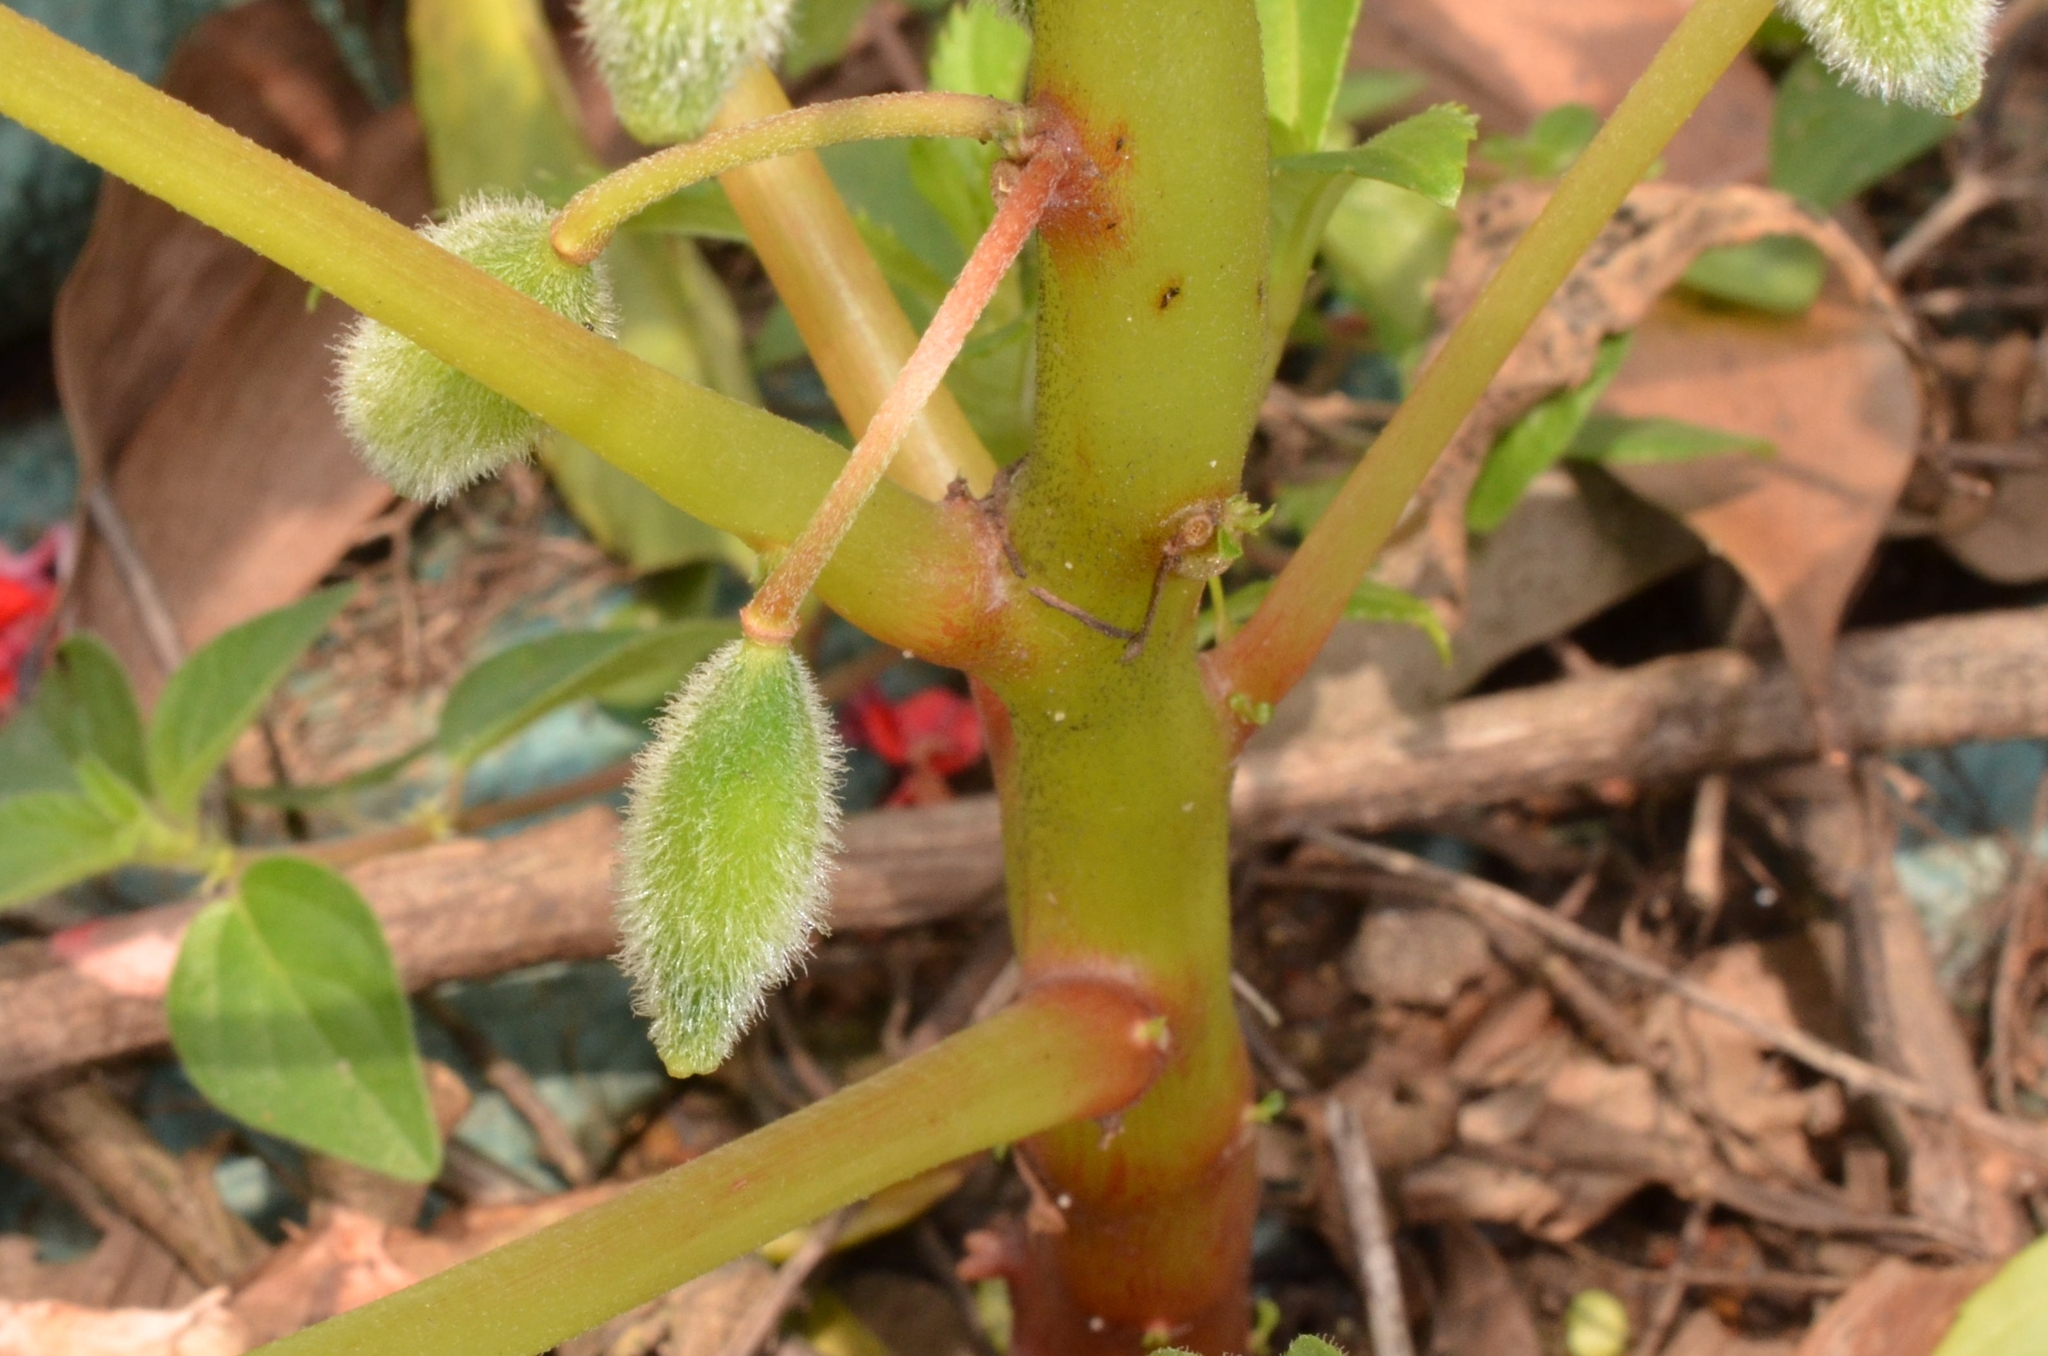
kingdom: Plantae
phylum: Tracheophyta
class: Magnoliopsida
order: Ericales
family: Balsaminaceae
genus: Impatiens
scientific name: Impatiens balsamina
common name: Balsam
